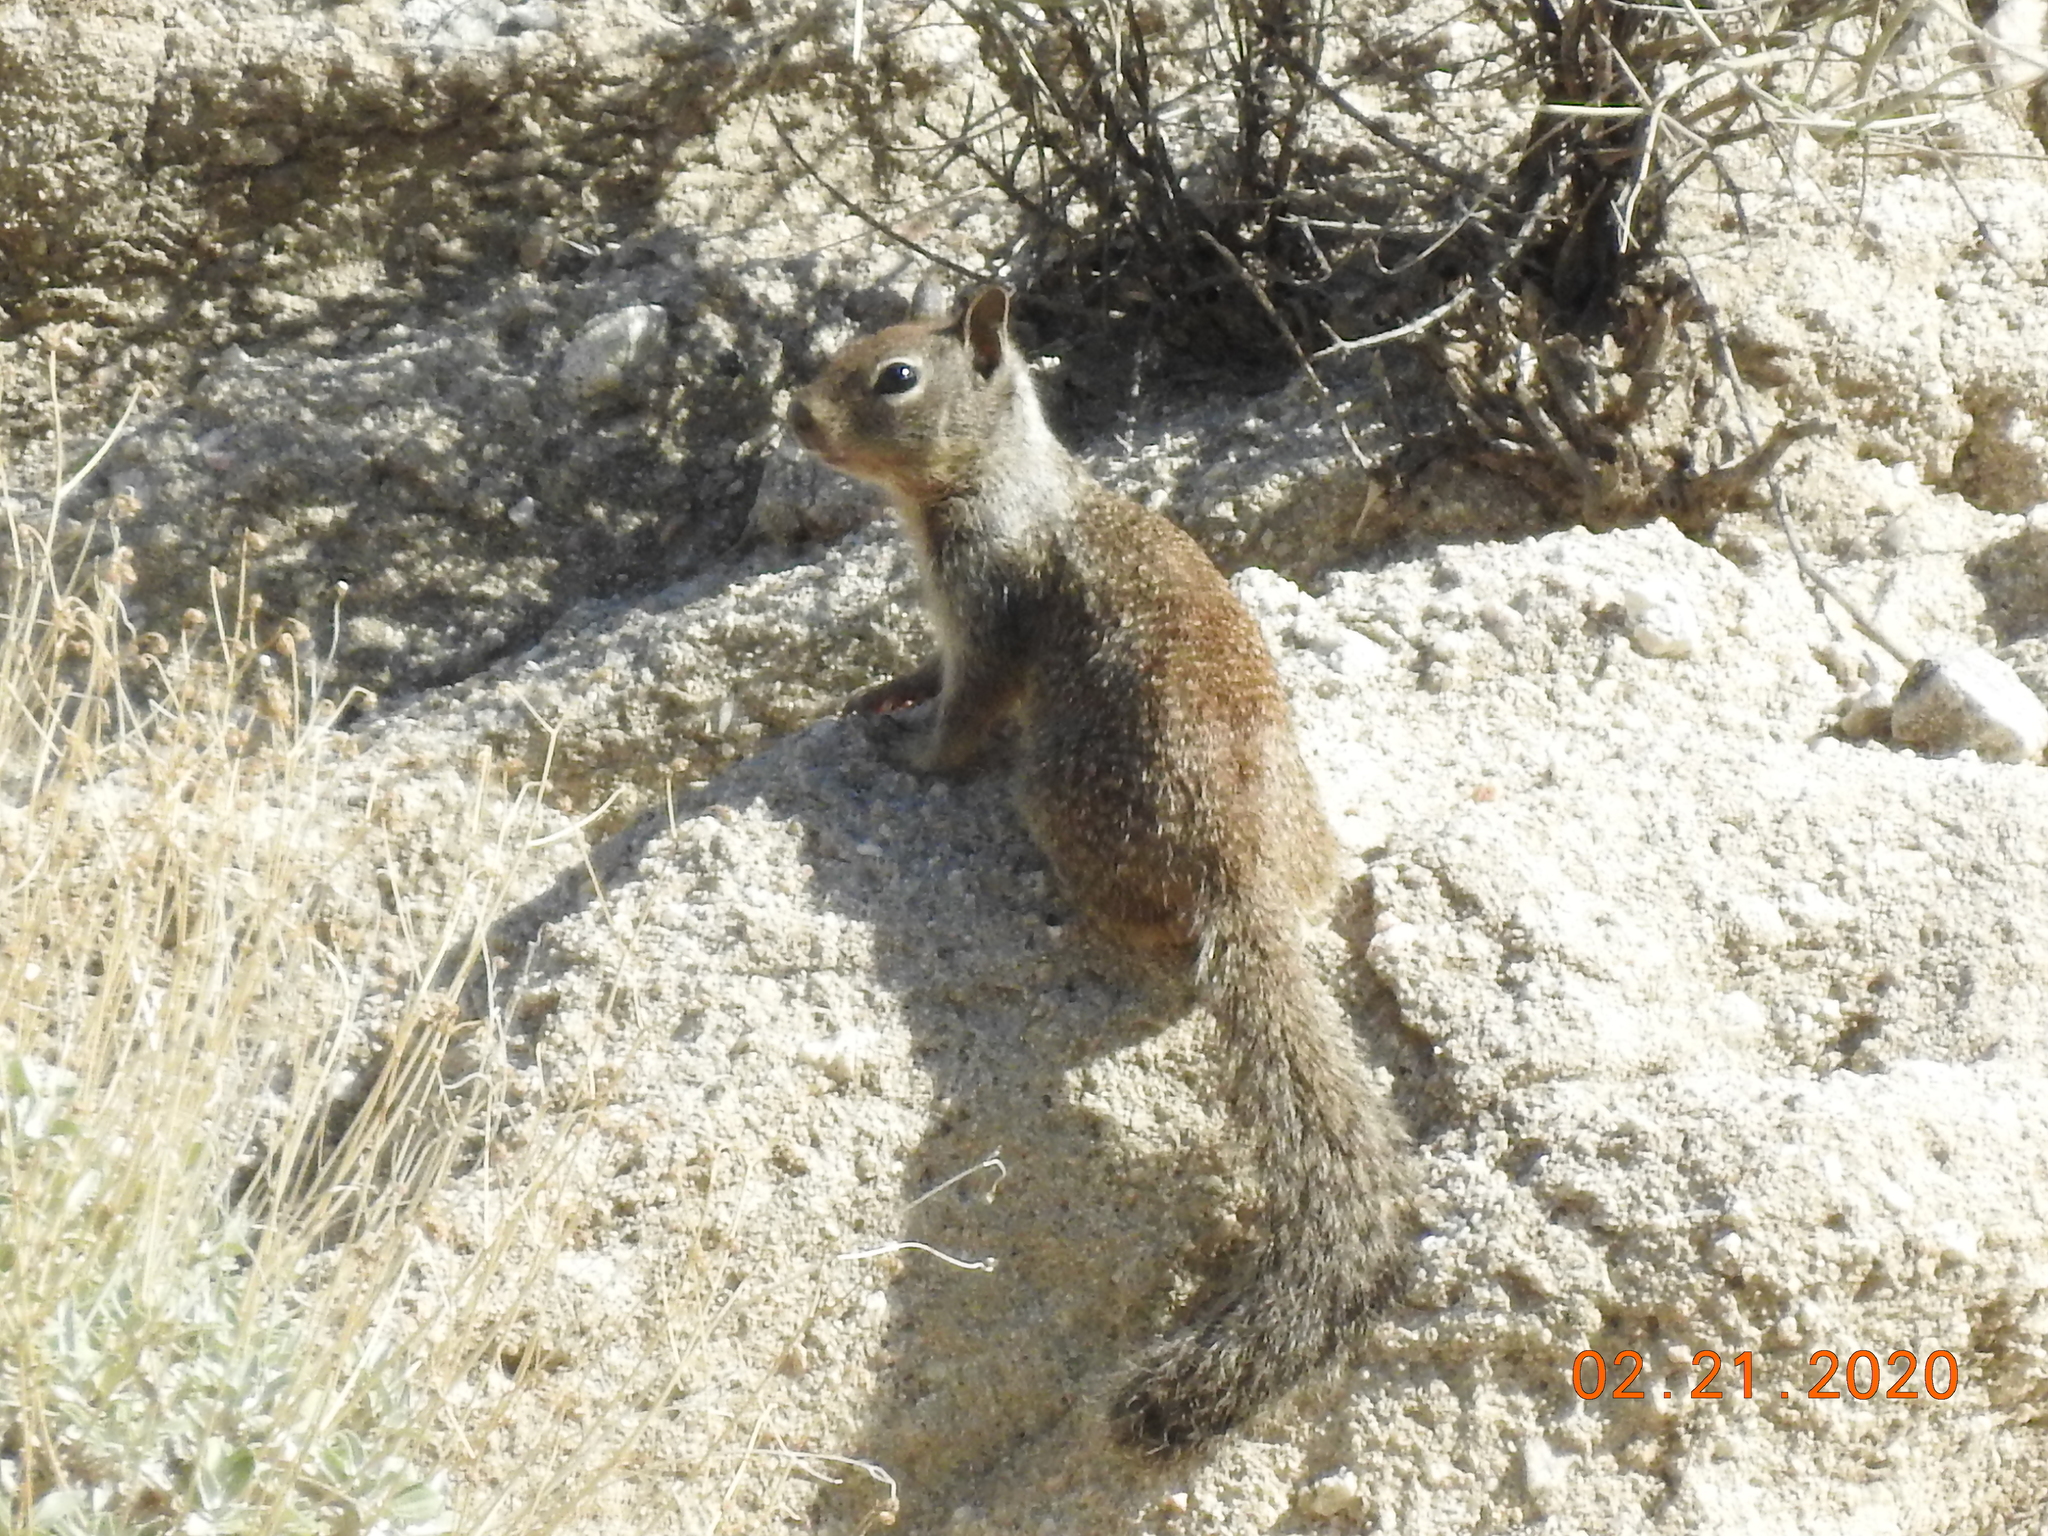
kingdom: Animalia
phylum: Chordata
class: Mammalia
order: Rodentia
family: Sciuridae
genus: Otospermophilus
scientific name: Otospermophilus beecheyi
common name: California ground squirrel
